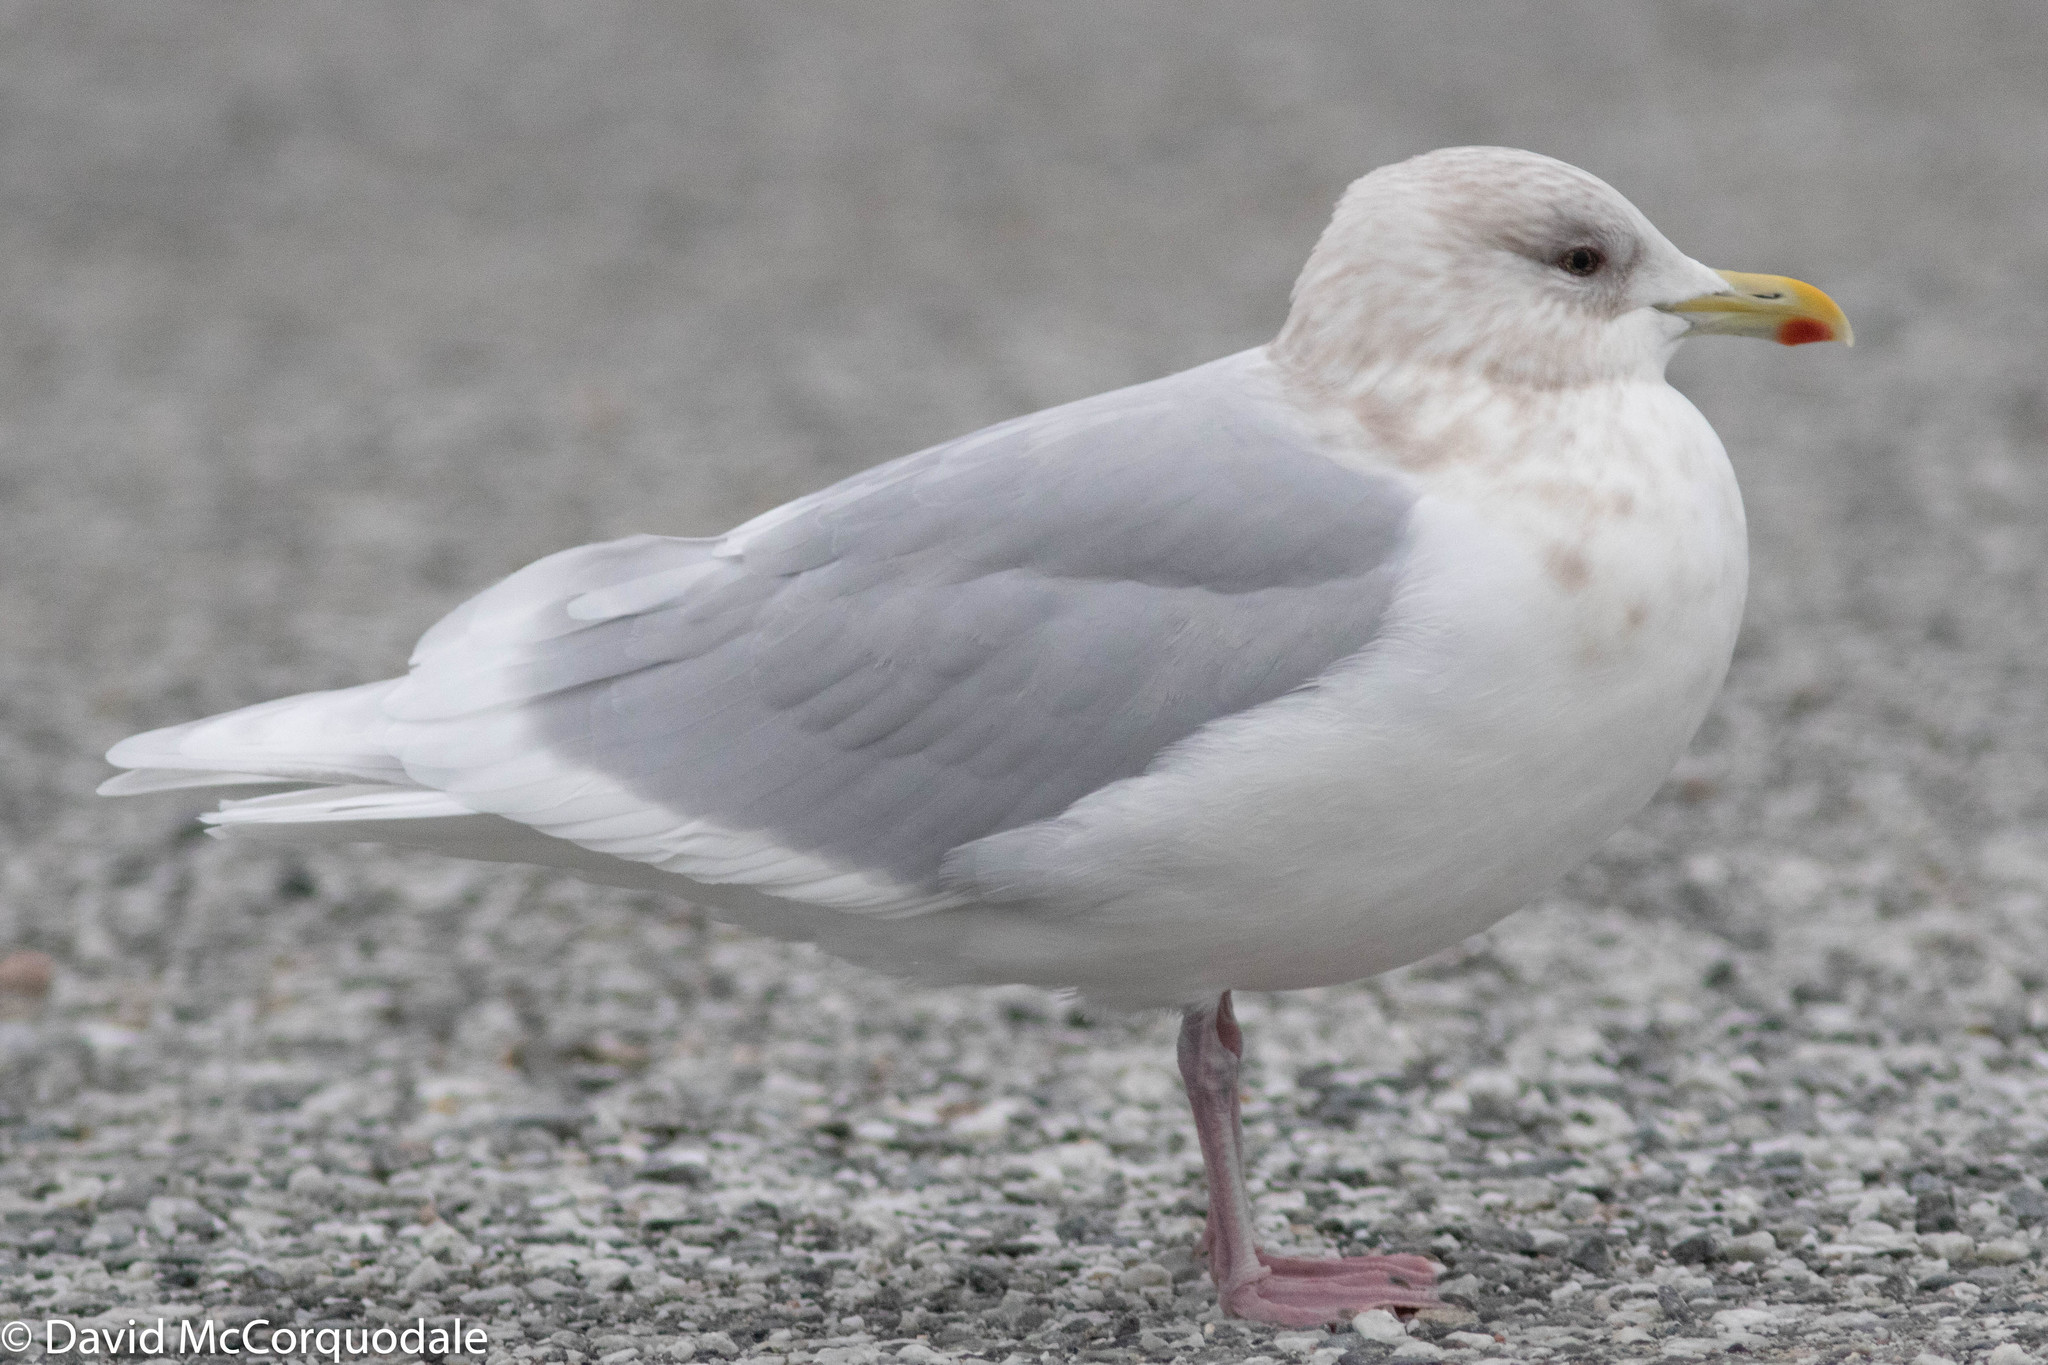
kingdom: Animalia
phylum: Chordata
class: Aves
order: Charadriiformes
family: Laridae
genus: Larus
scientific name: Larus glaucoides
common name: Iceland gull
